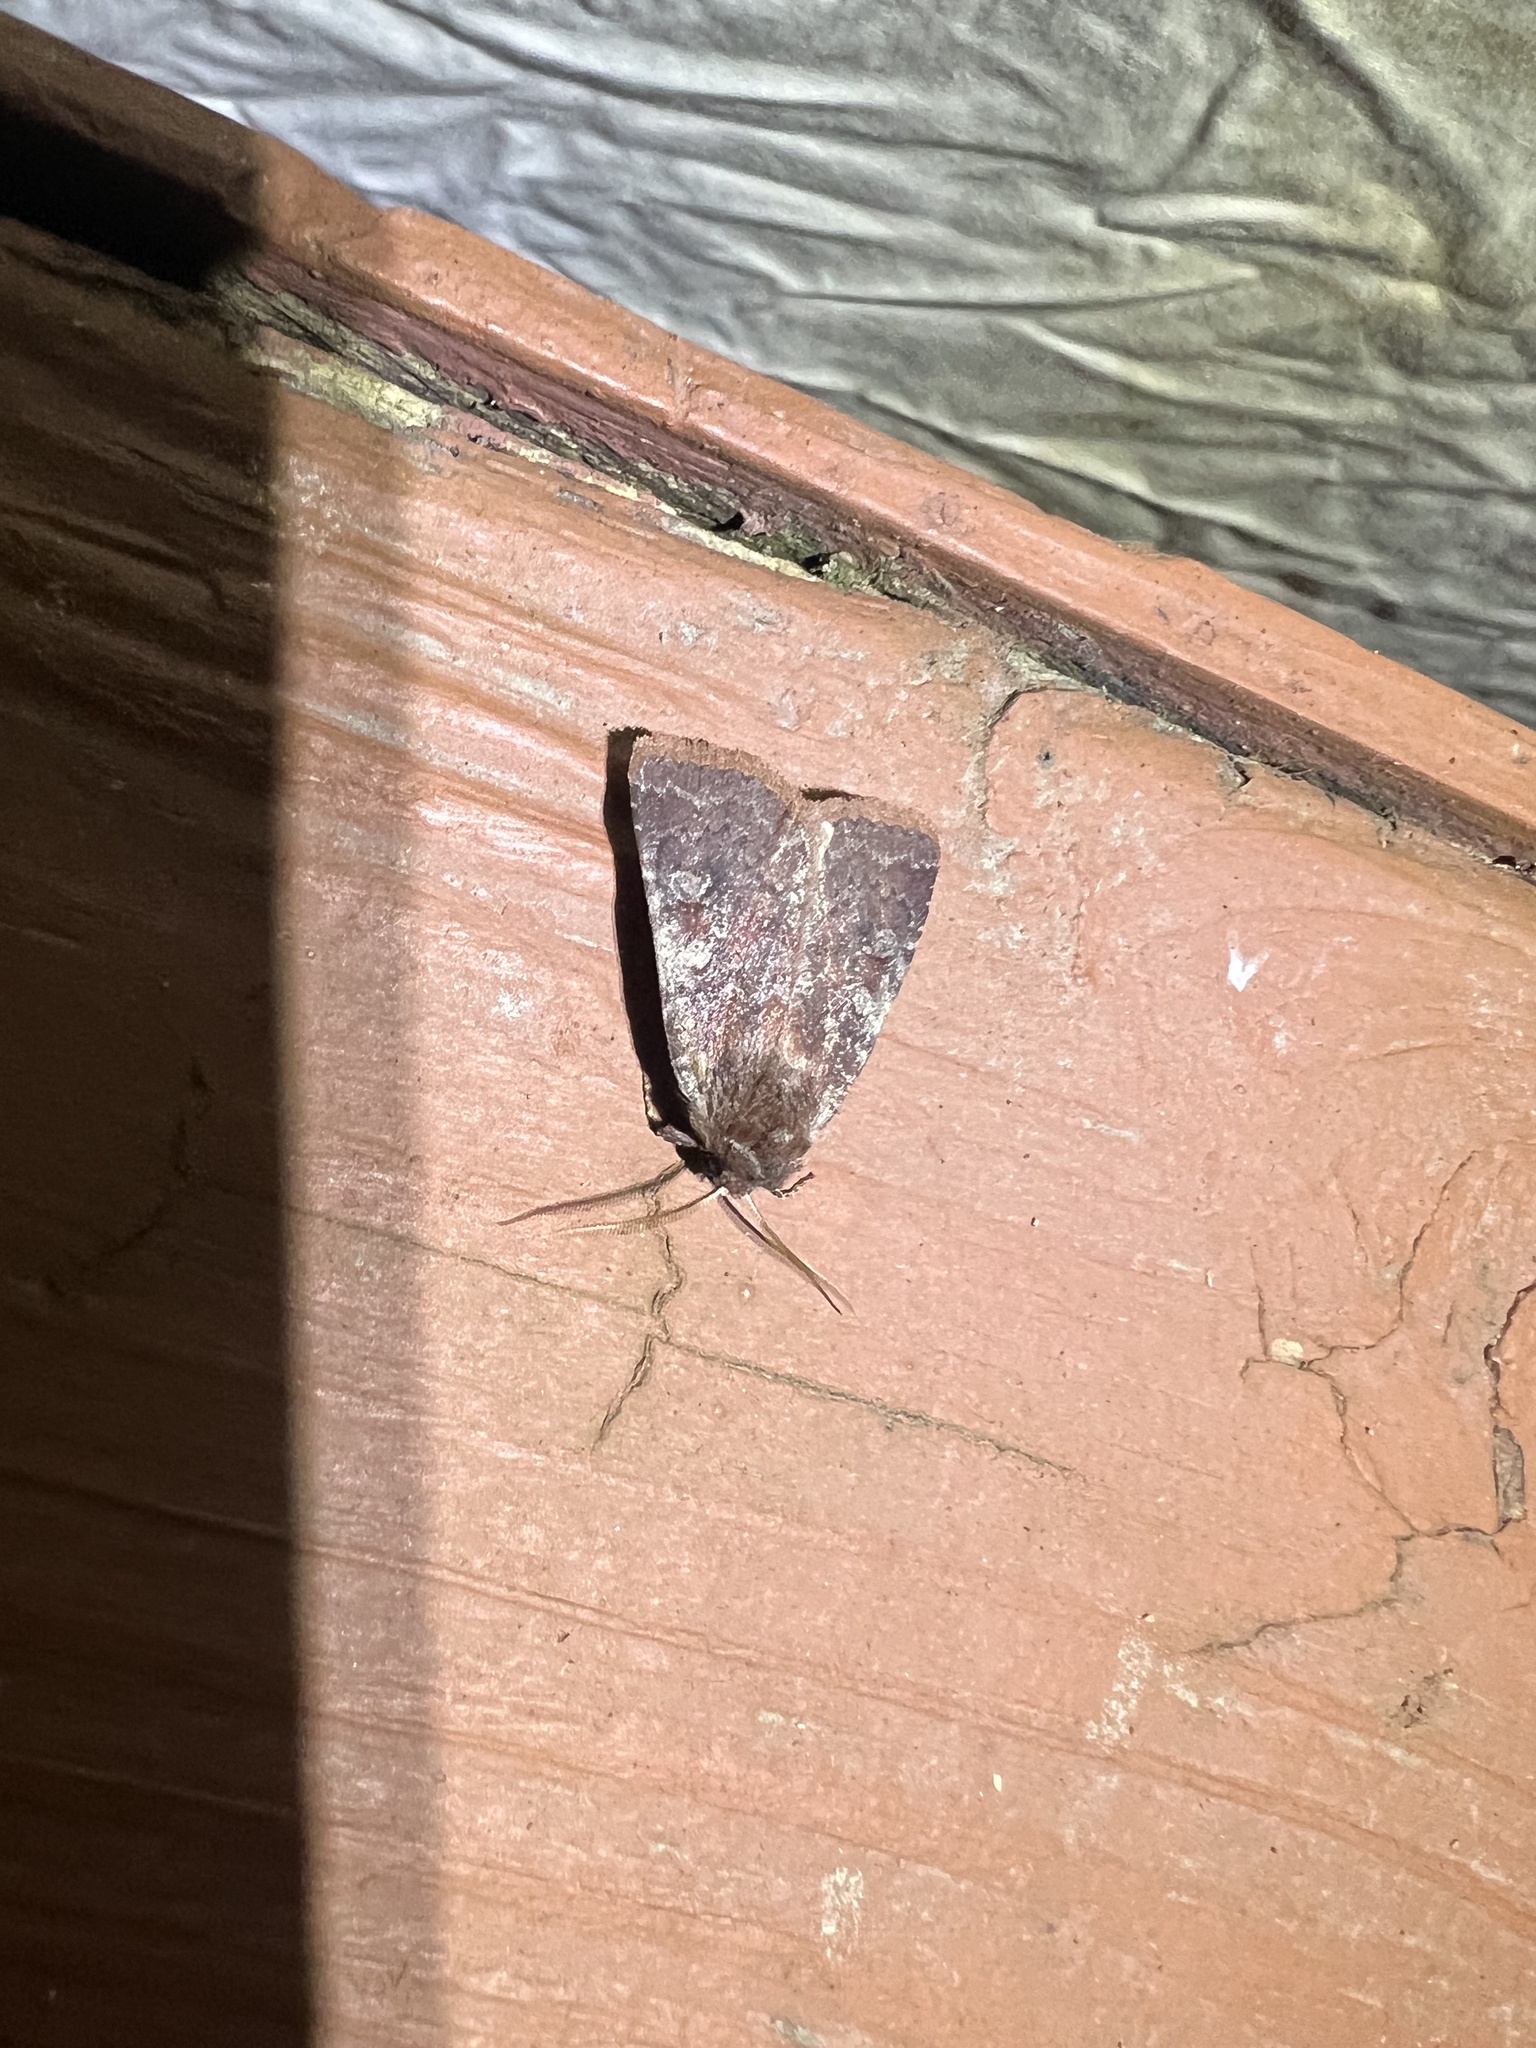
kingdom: Animalia
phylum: Arthropoda
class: Insecta
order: Lepidoptera
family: Noctuidae
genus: Cerastis
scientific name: Cerastis tenebrifera
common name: Reddish speckled dart
